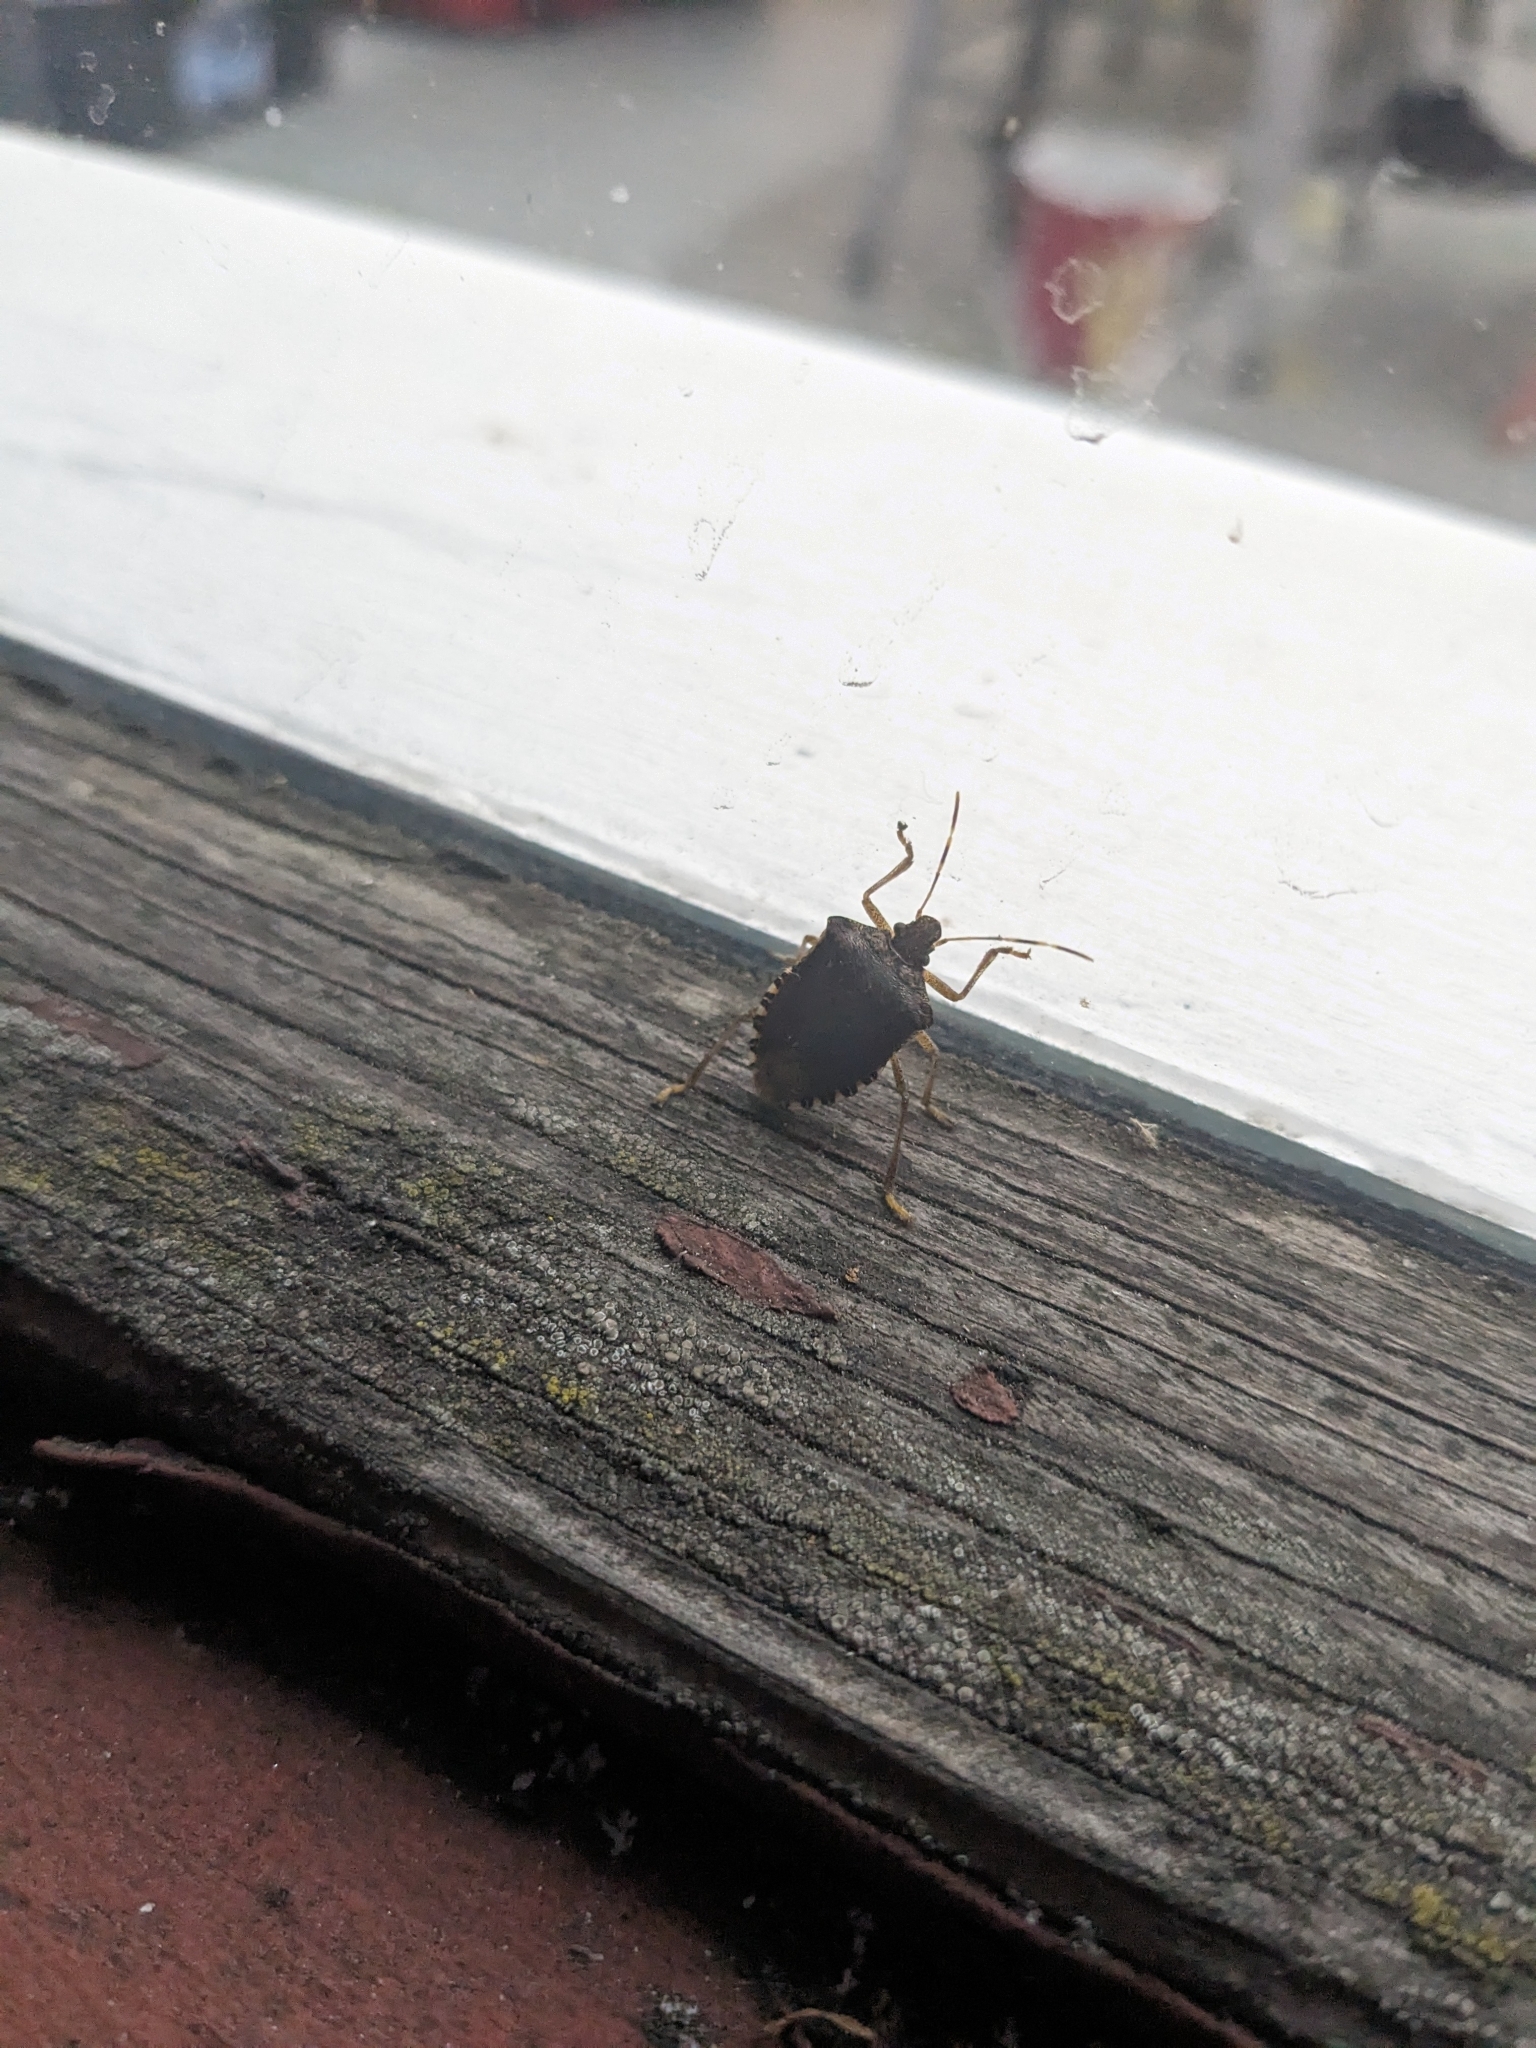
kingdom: Animalia
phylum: Arthropoda
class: Insecta
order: Hemiptera
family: Pentatomidae
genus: Halyomorpha
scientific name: Halyomorpha halys
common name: Brown marmorated stink bug
